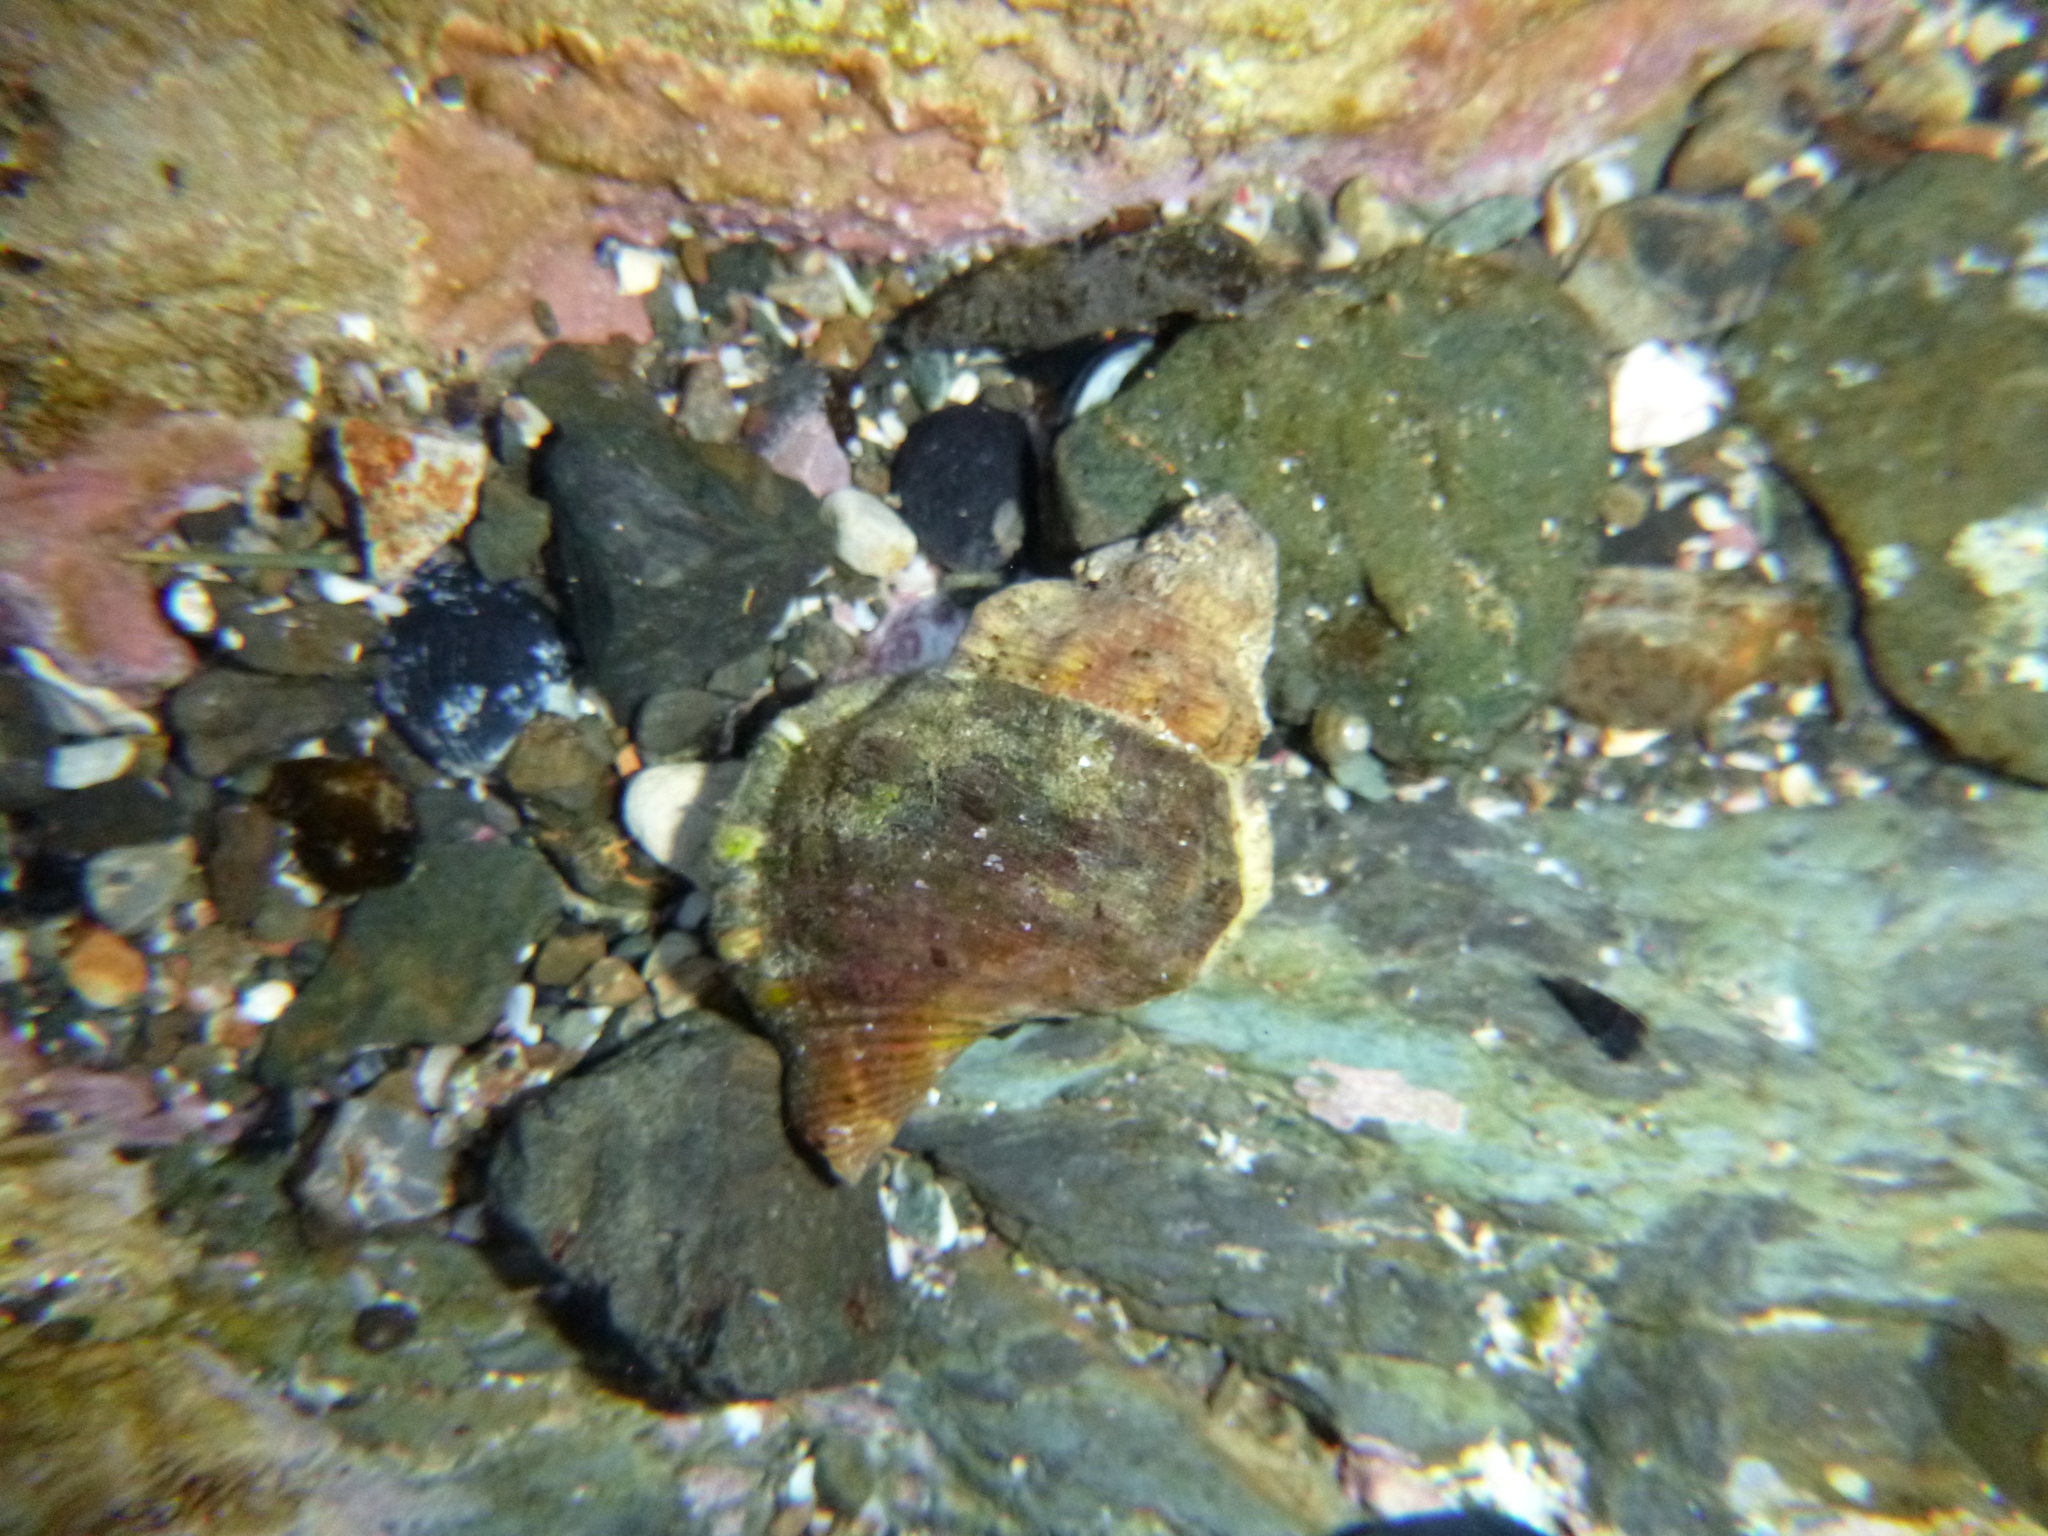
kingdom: Animalia
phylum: Mollusca
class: Gastropoda
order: Littorinimorpha
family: Ranellidae
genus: Ranella
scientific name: Ranella australasia
